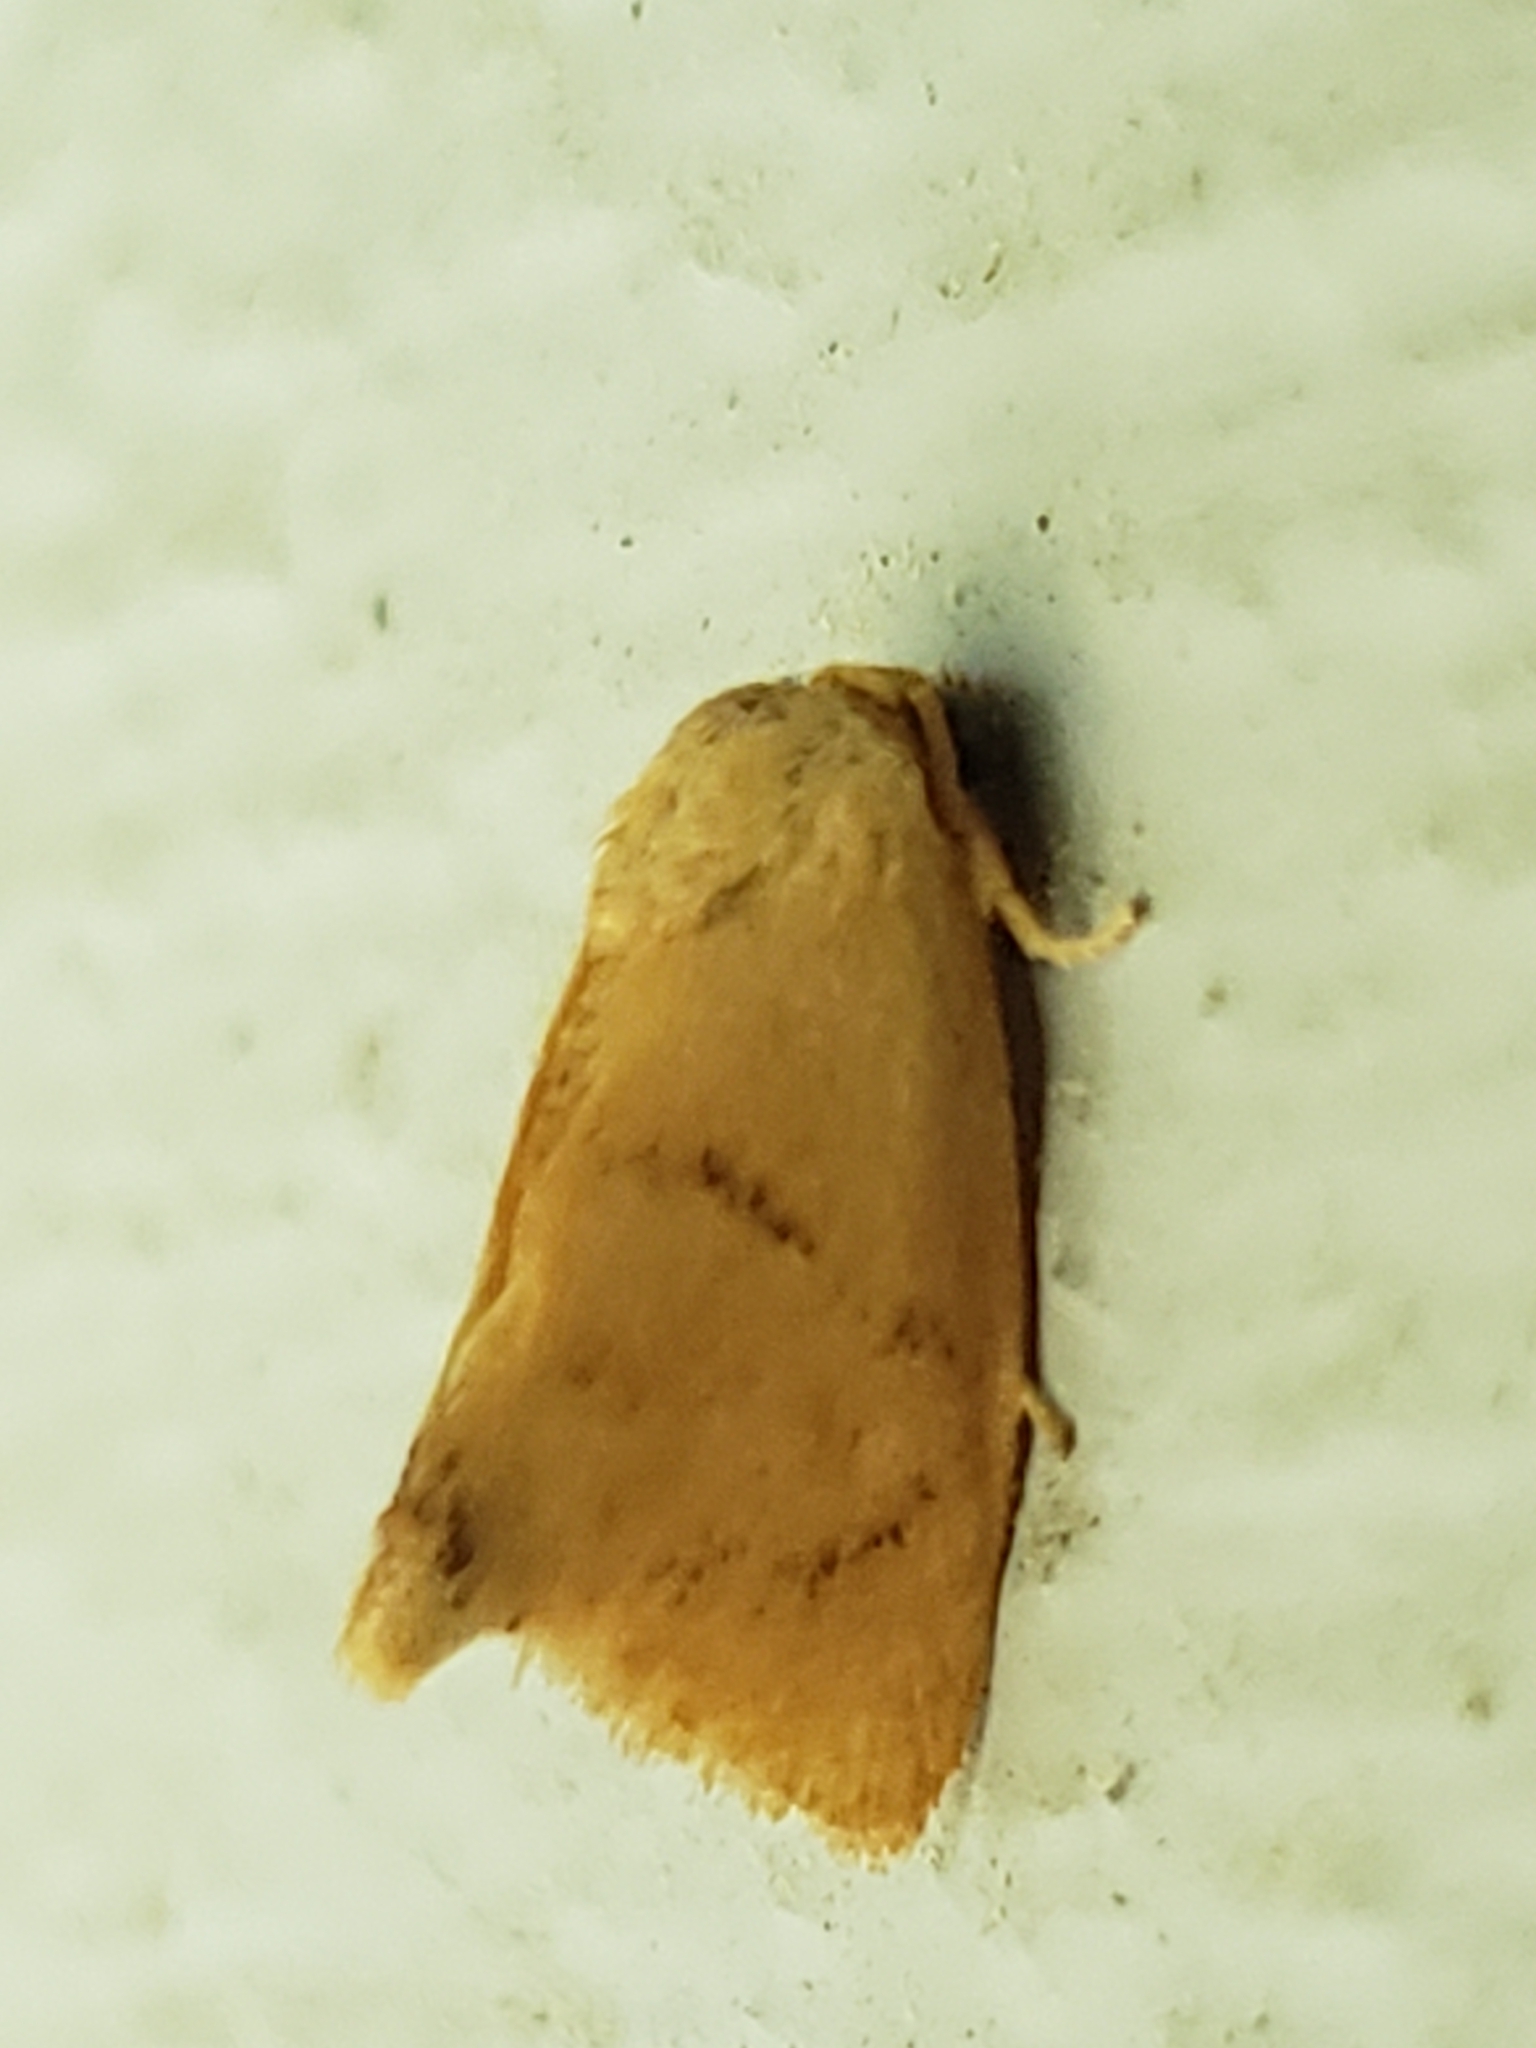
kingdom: Animalia
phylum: Arthropoda
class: Insecta
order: Lepidoptera
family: Limacodidae
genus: Tortricidia
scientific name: Tortricidia flexuosa
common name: Abbreviated button slug moth
